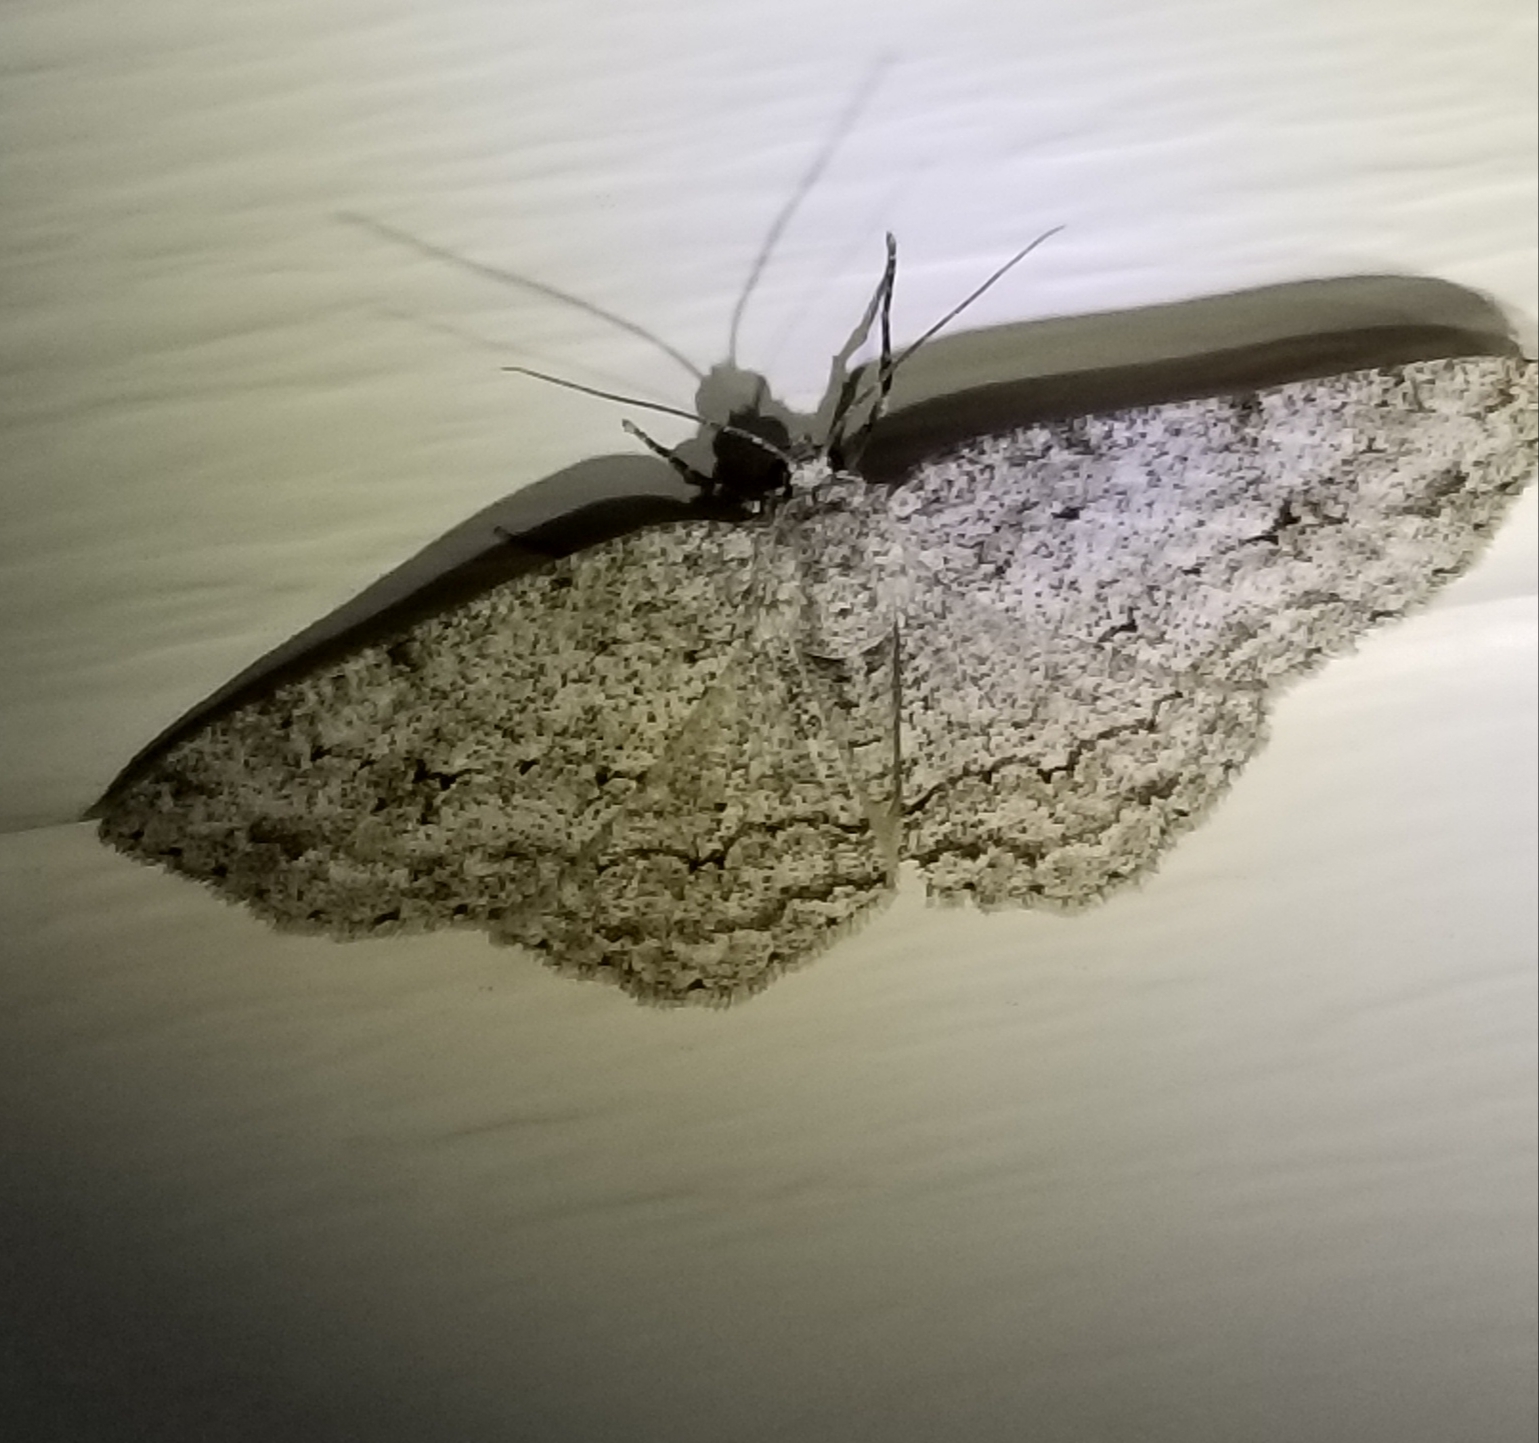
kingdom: Animalia
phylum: Arthropoda
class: Insecta
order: Lepidoptera
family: Geometridae
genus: Ectropis
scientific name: Ectropis crepuscularia
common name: Engrailed
